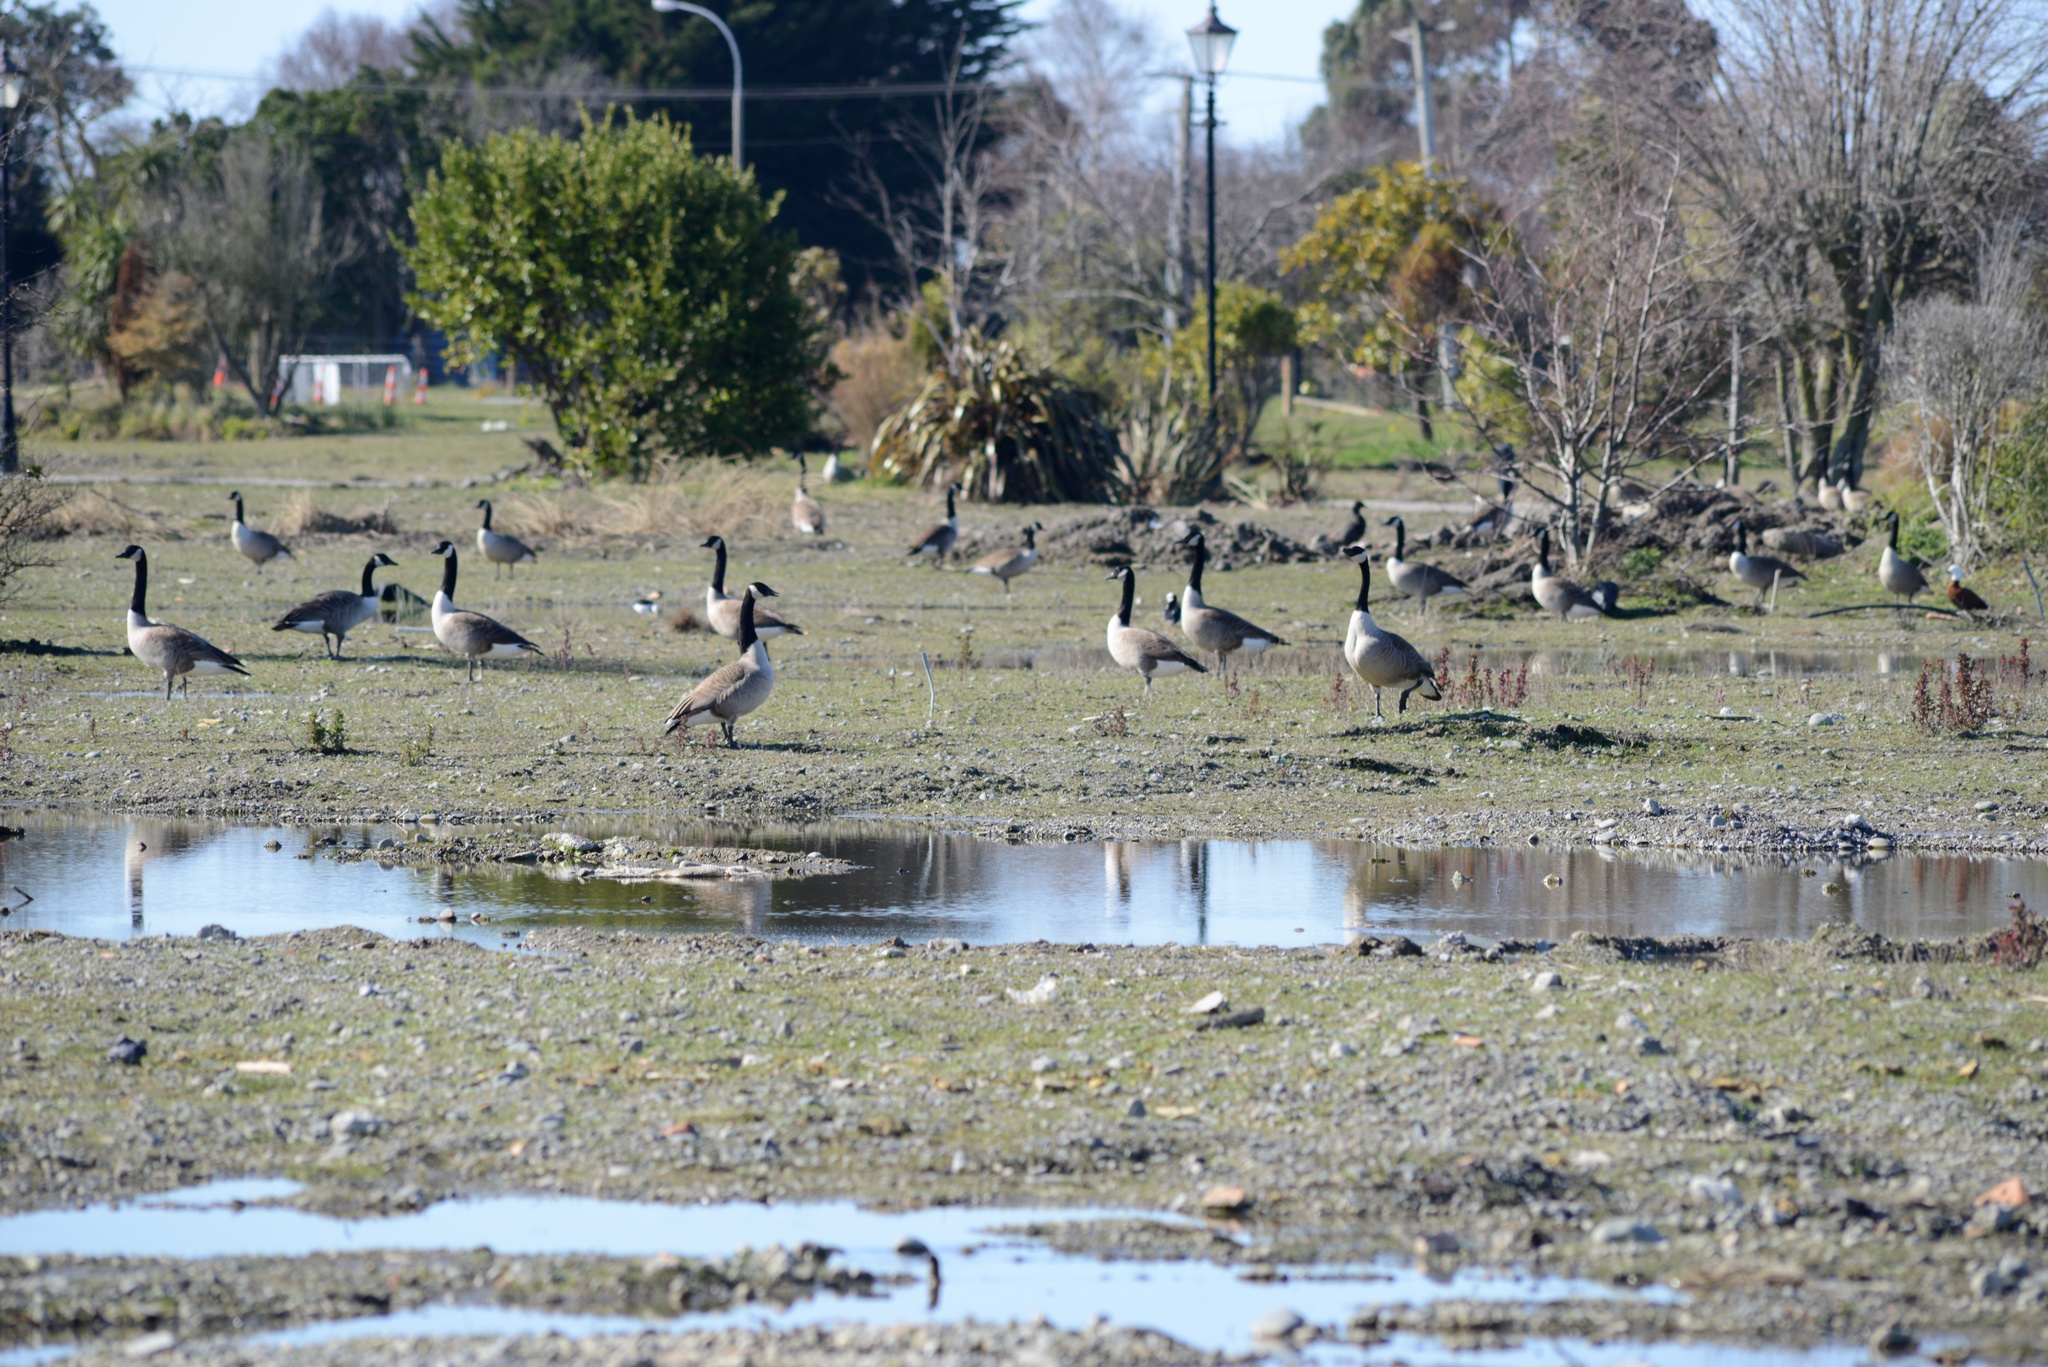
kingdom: Animalia
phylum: Chordata
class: Aves
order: Anseriformes
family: Anatidae
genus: Branta
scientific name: Branta canadensis
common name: Canada goose
